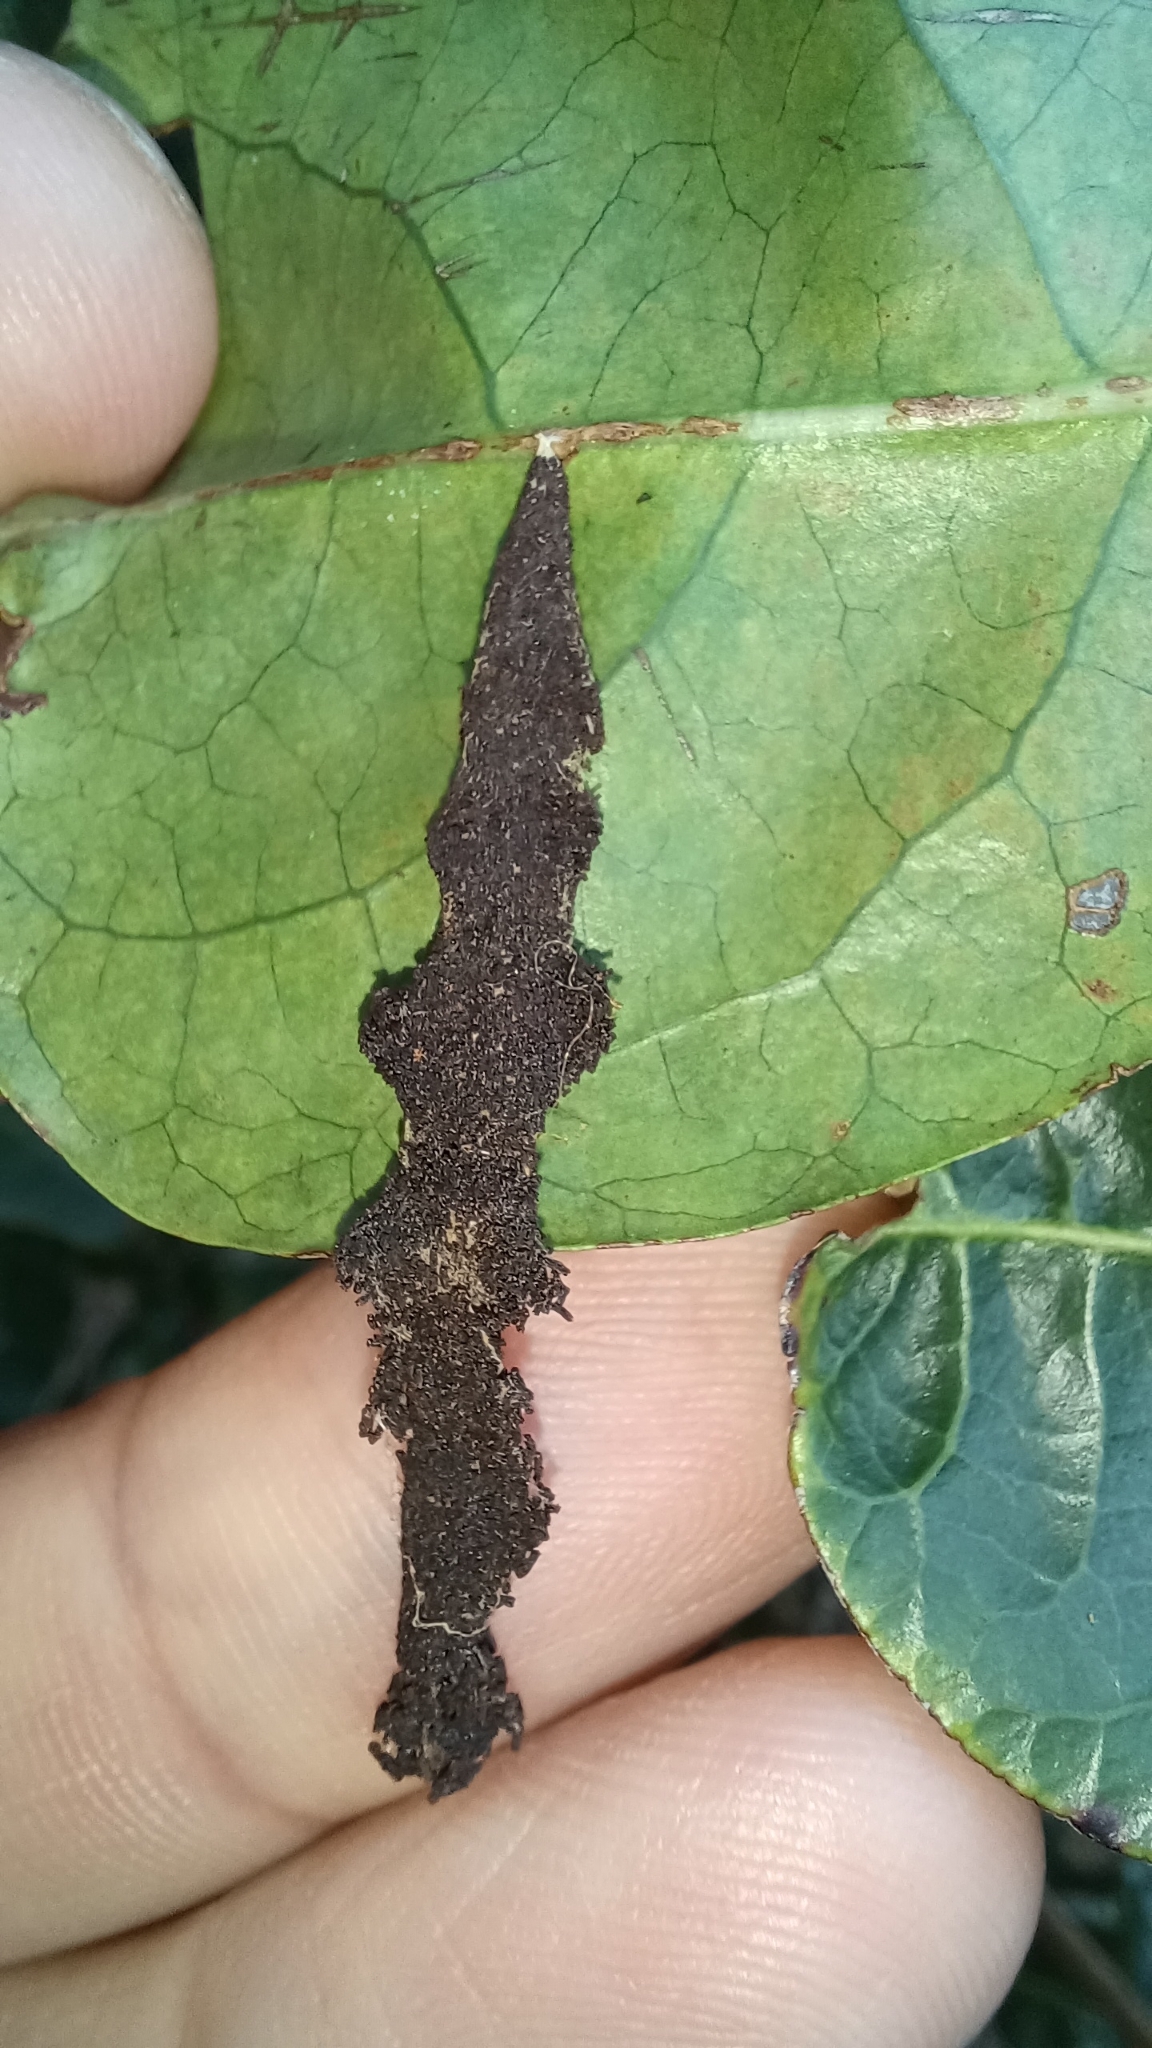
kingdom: Animalia
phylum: Arthropoda
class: Insecta
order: Lepidoptera
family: Pyralidae
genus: Stericta
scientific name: Stericta orchidivora
